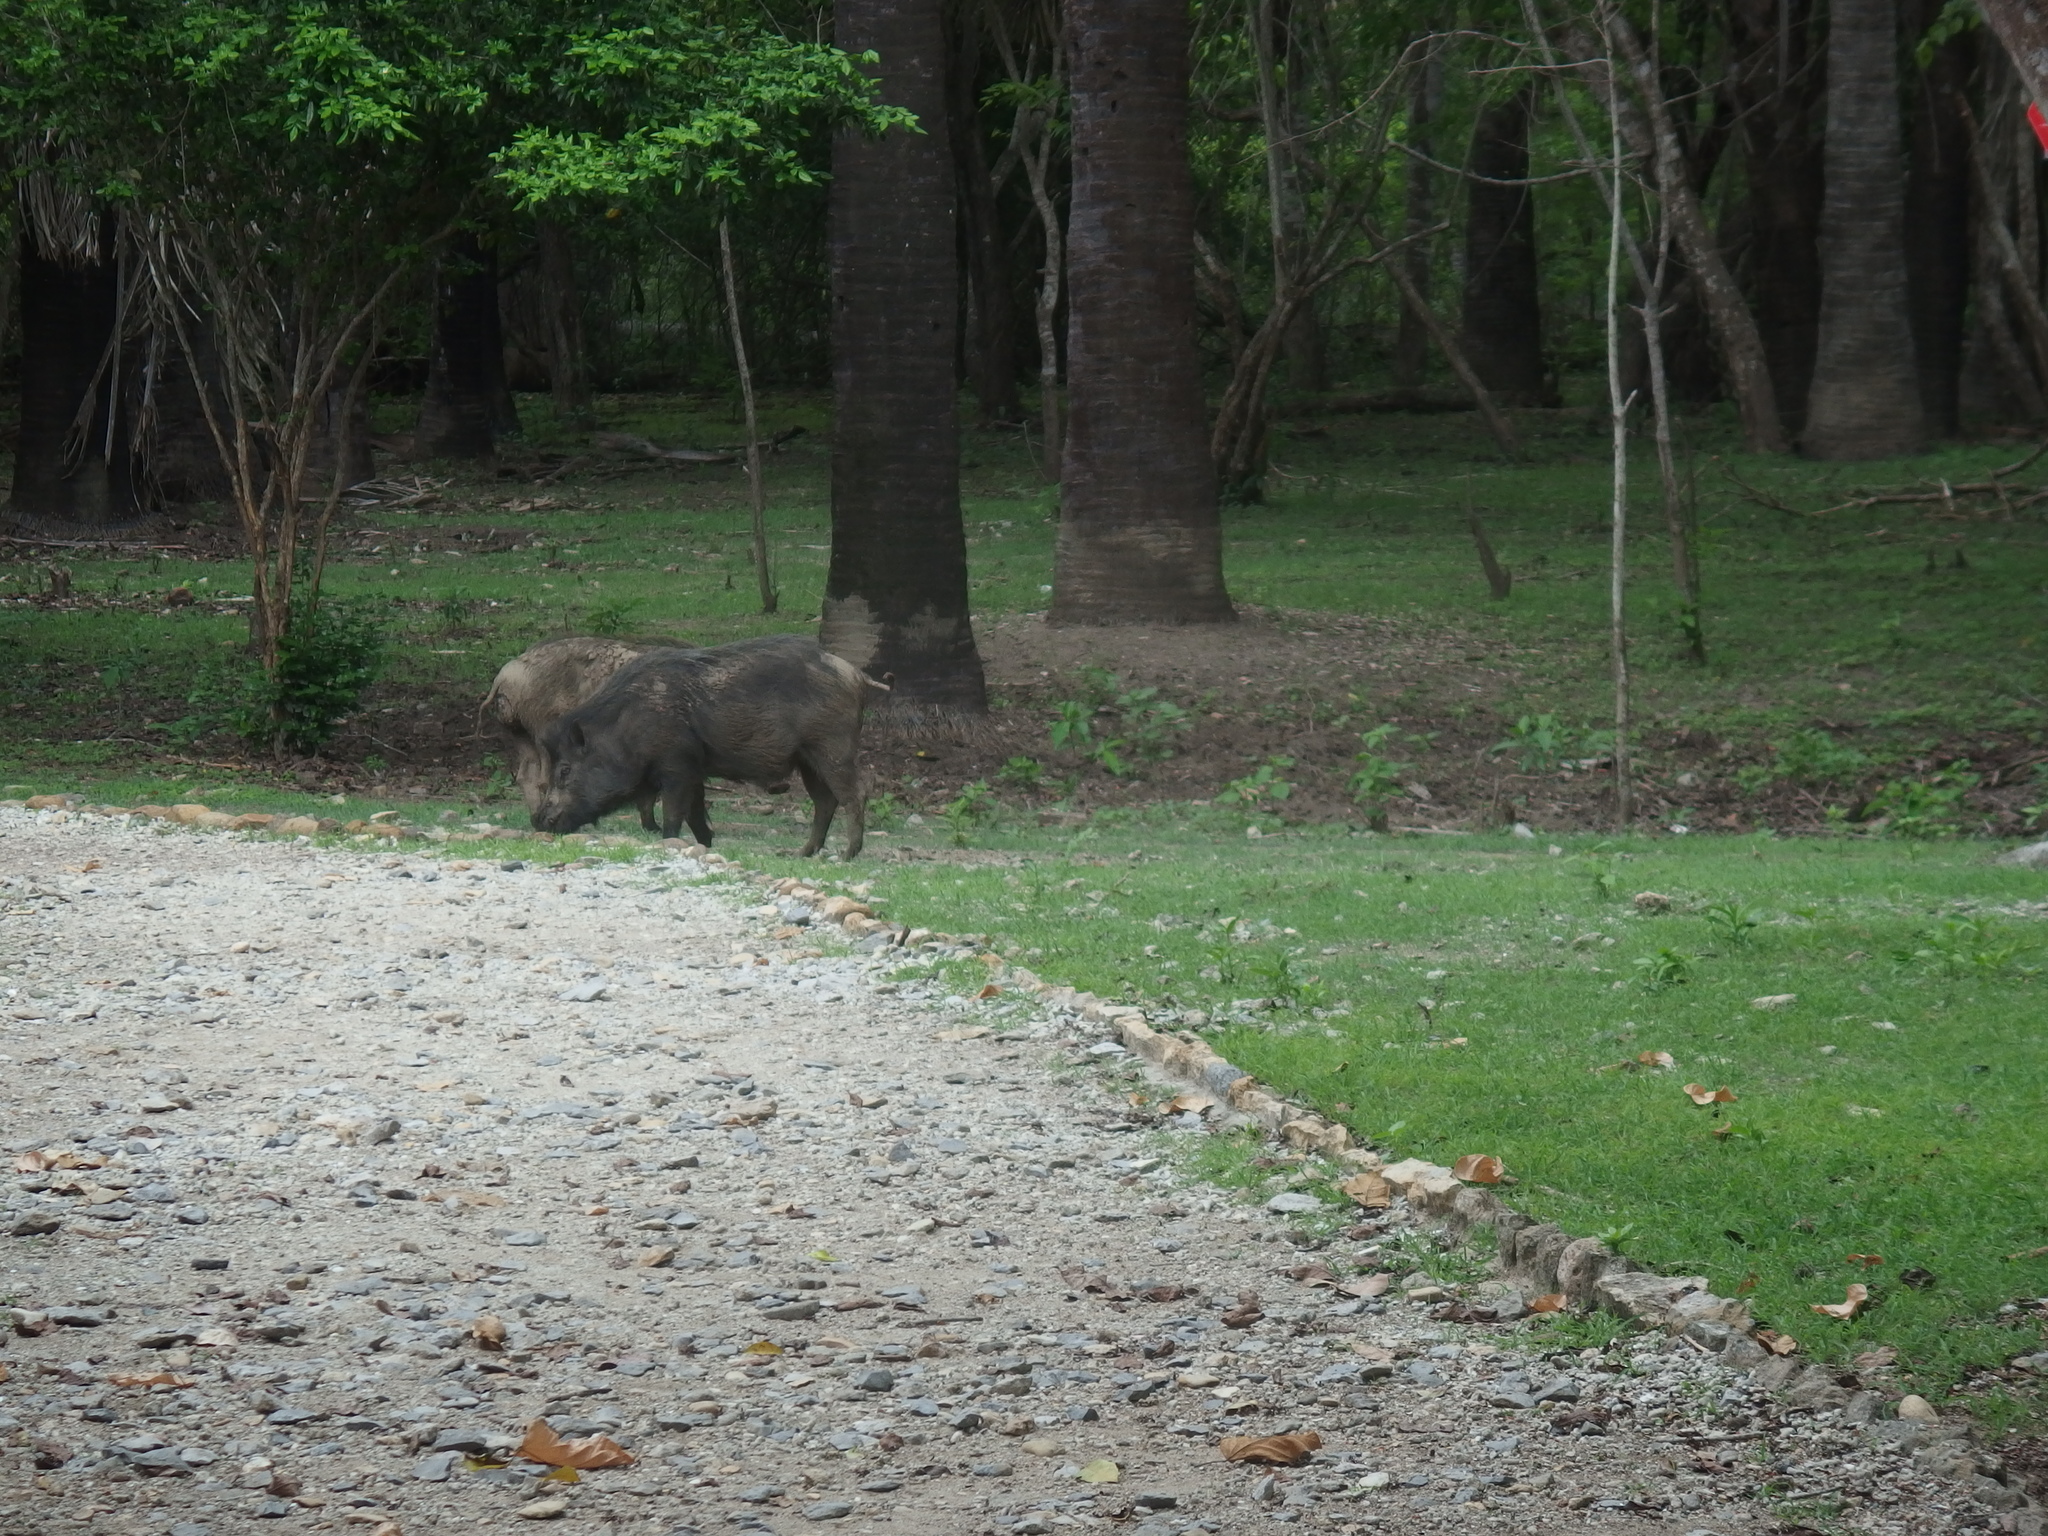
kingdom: Animalia
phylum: Chordata
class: Mammalia
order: Artiodactyla
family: Suidae
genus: Sus
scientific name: Sus scrofa
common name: Wild boar
